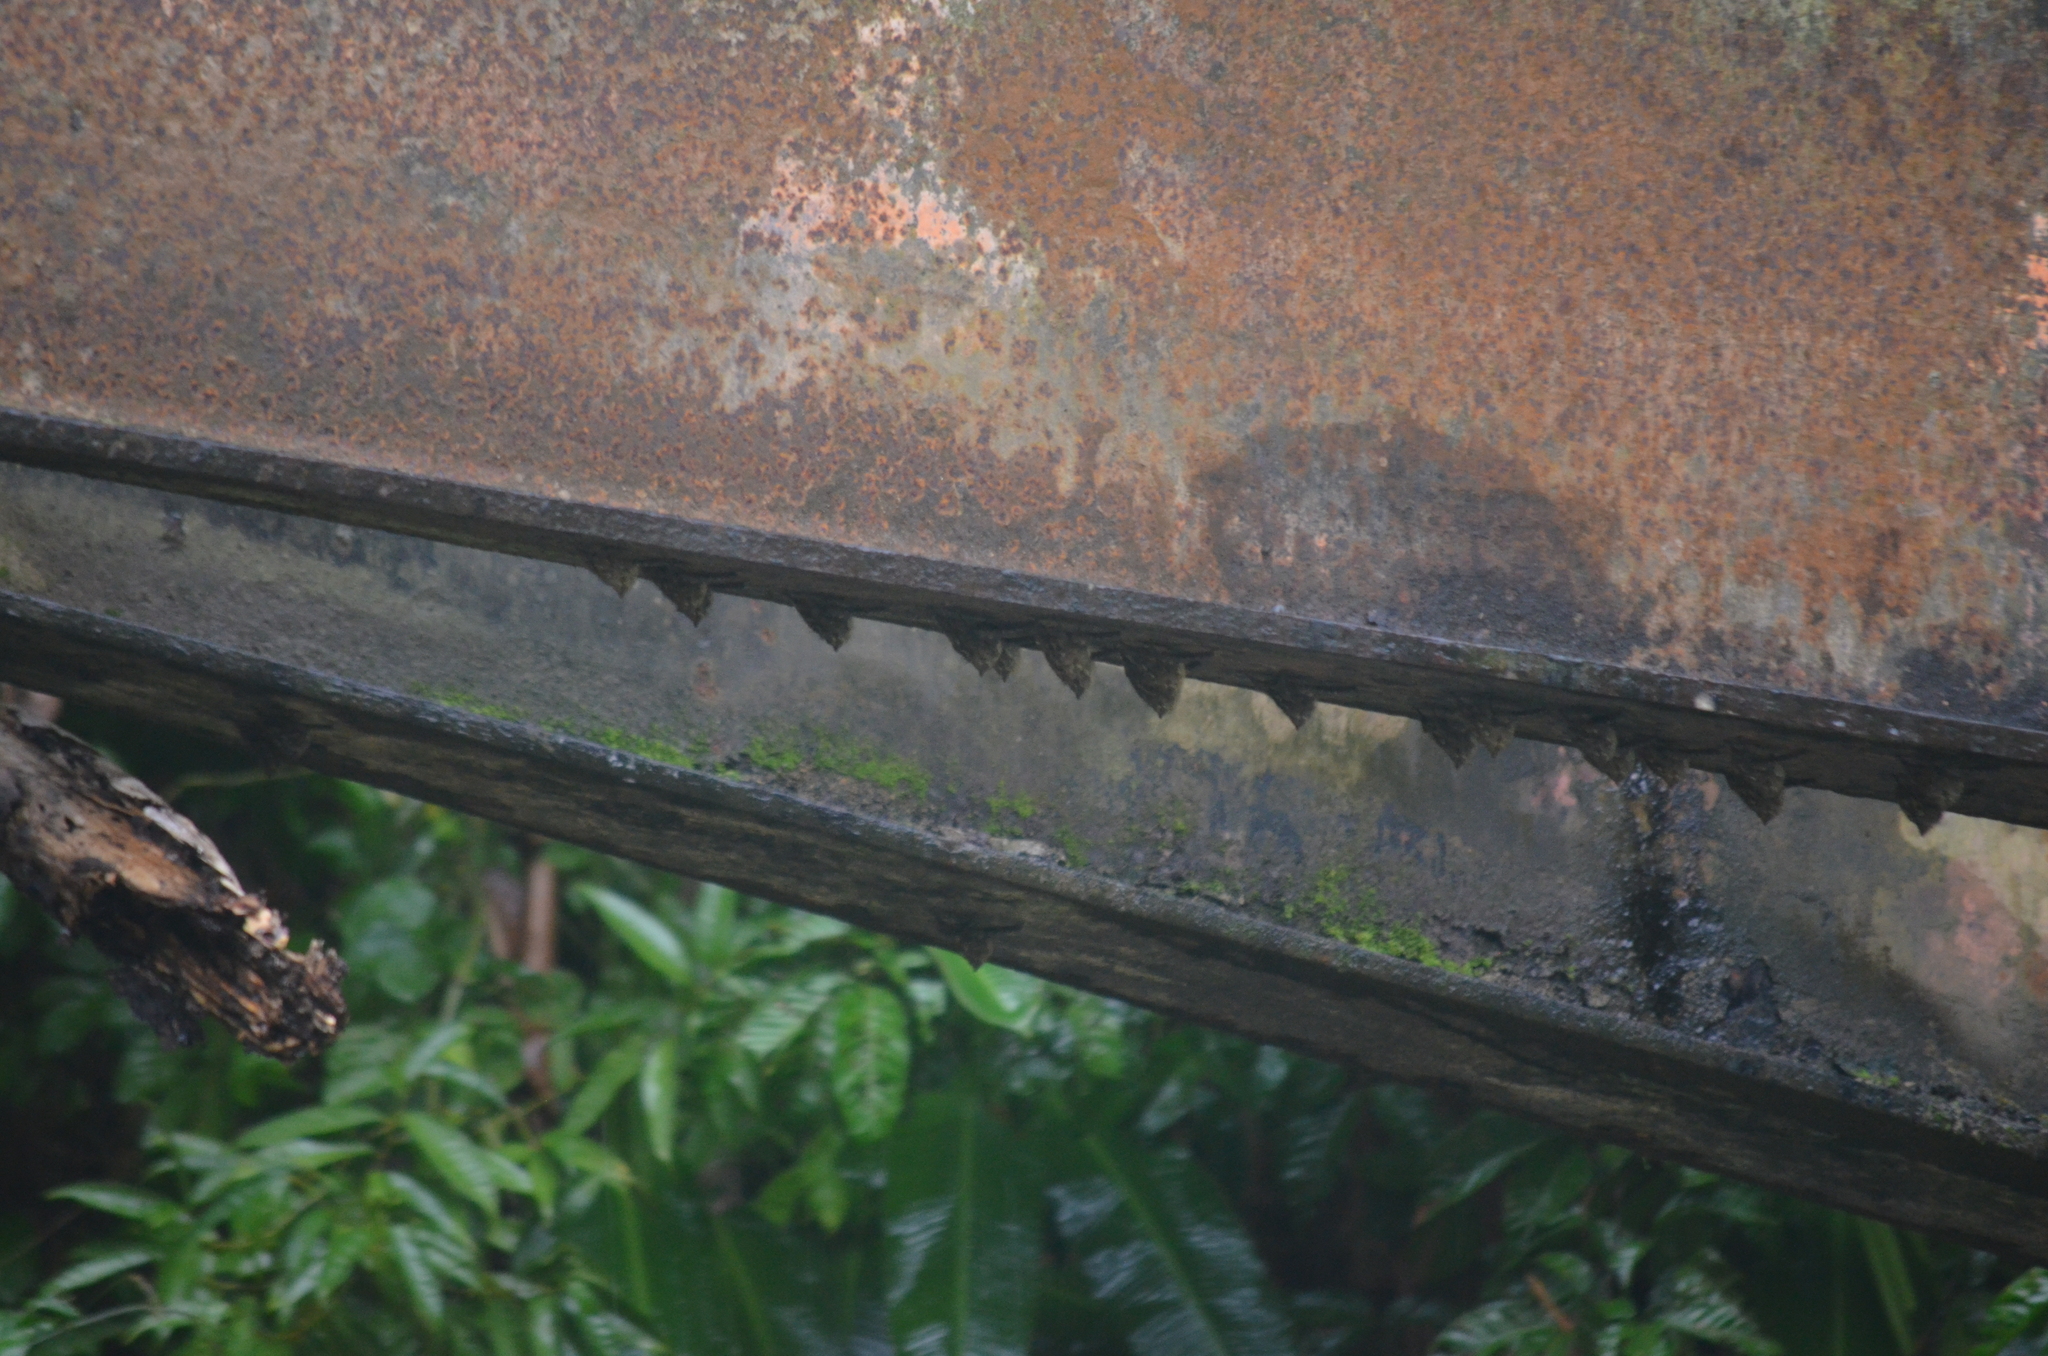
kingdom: Animalia
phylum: Chordata
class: Mammalia
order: Chiroptera
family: Emballonuridae
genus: Rhynchonycteris
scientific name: Rhynchonycteris naso
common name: Proboscis bat
